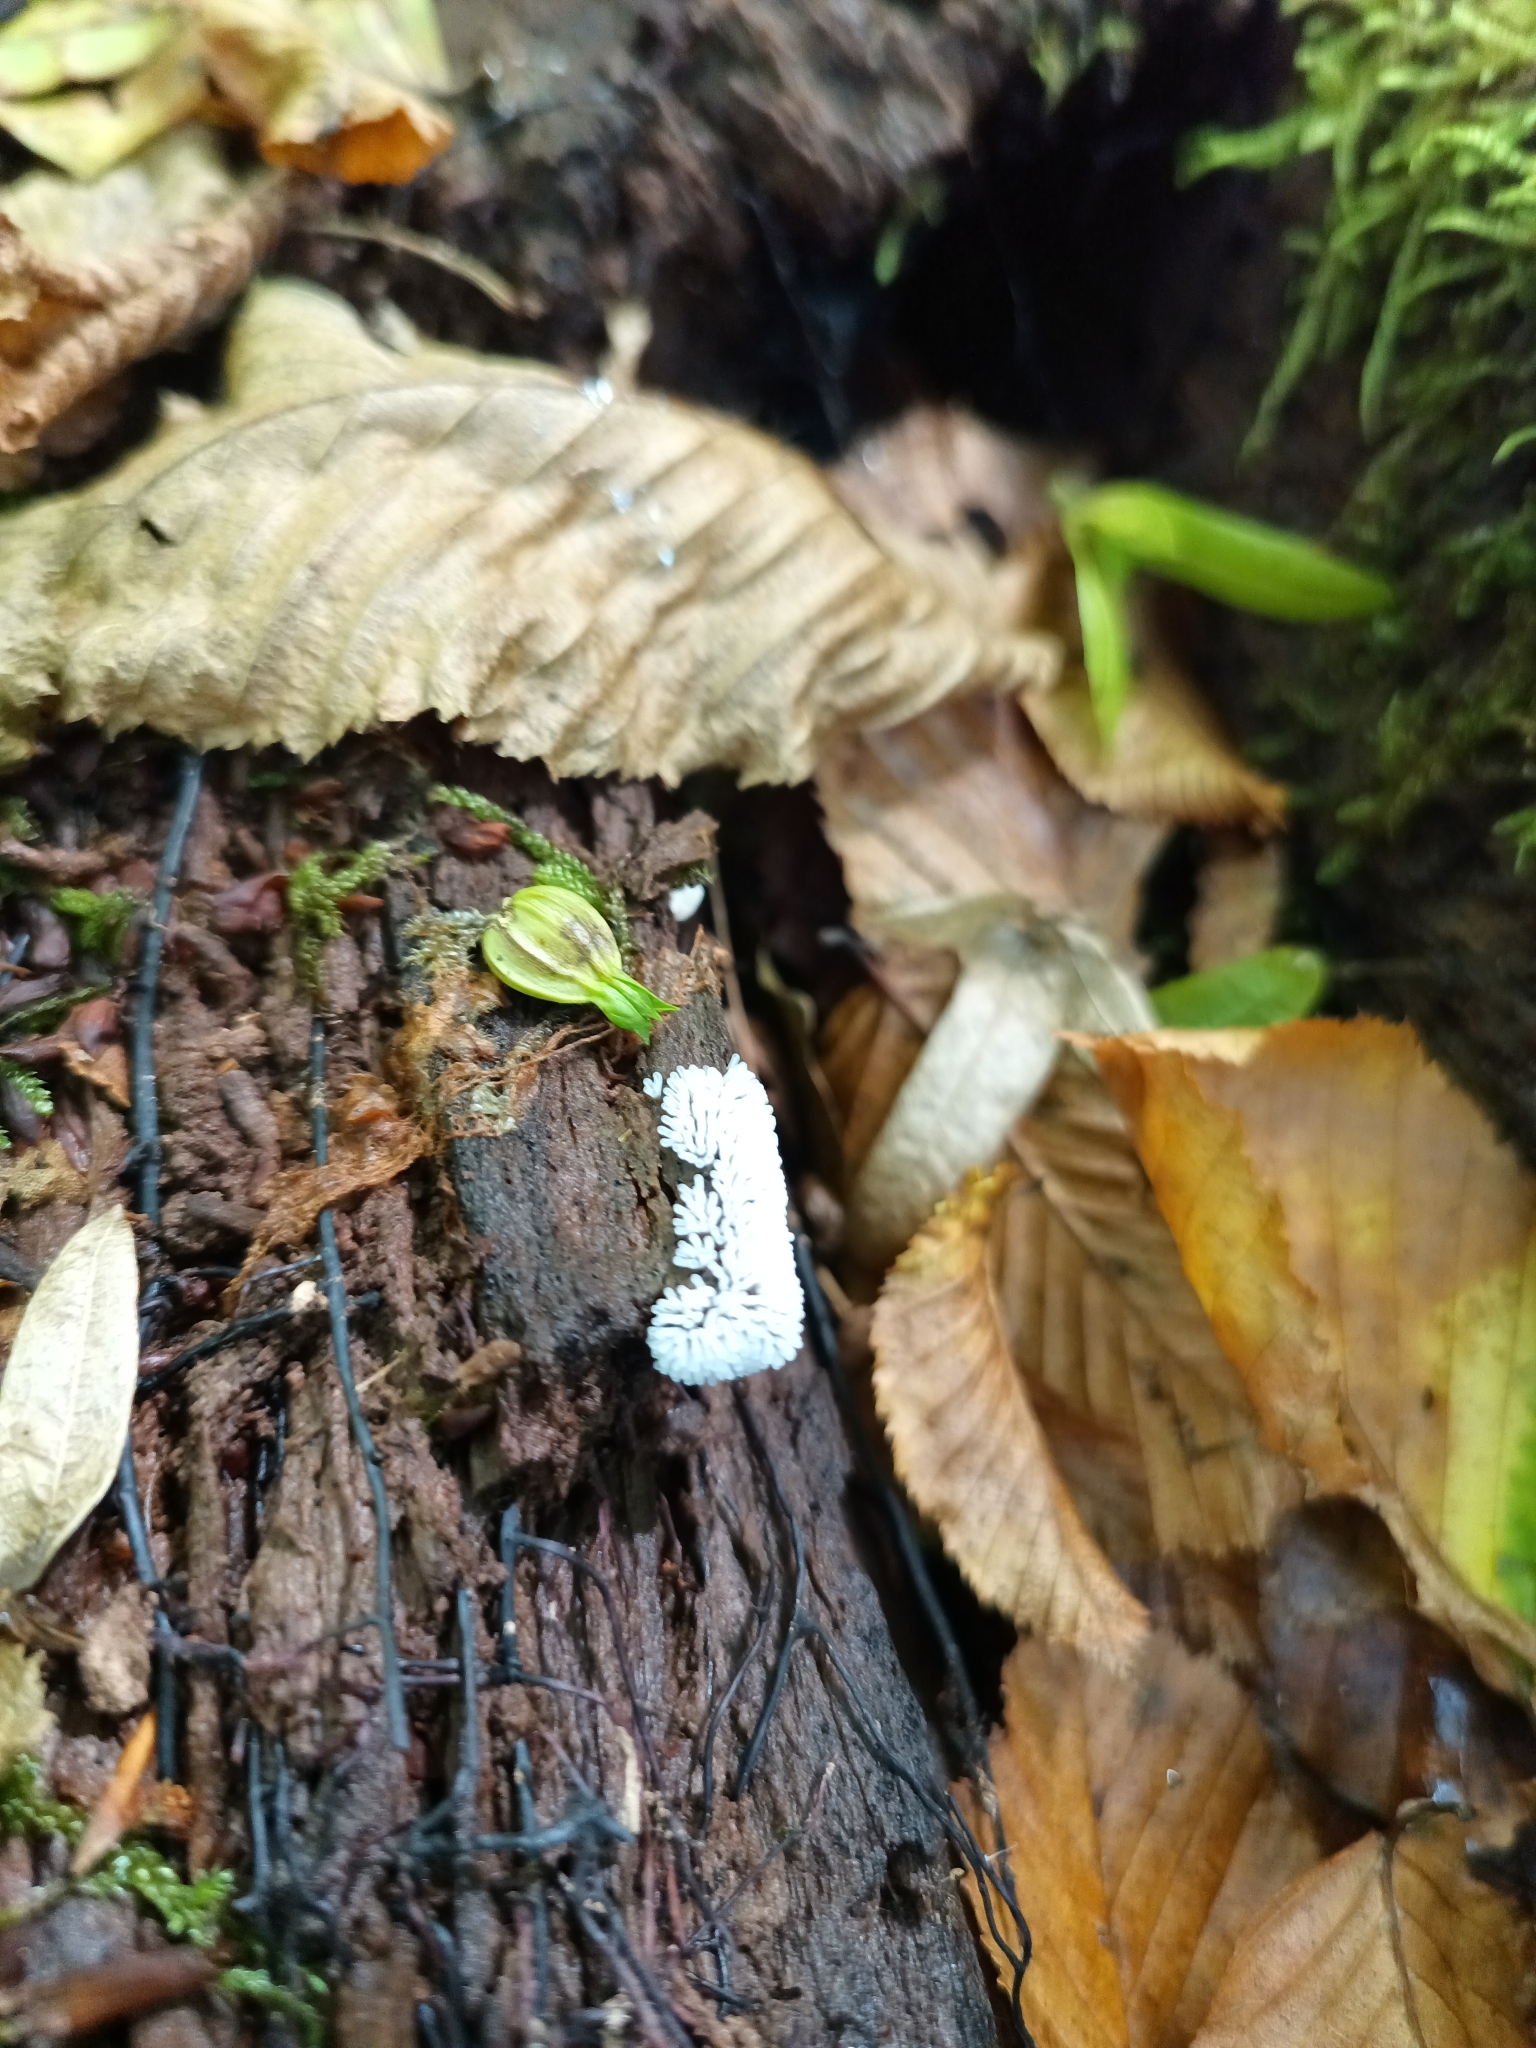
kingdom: Protozoa
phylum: Mycetozoa
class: Protosteliomycetes
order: Ceratiomyxales
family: Ceratiomyxaceae
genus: Ceratiomyxa
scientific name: Ceratiomyxa fruticulosa
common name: Honeycomb coral slime mold
